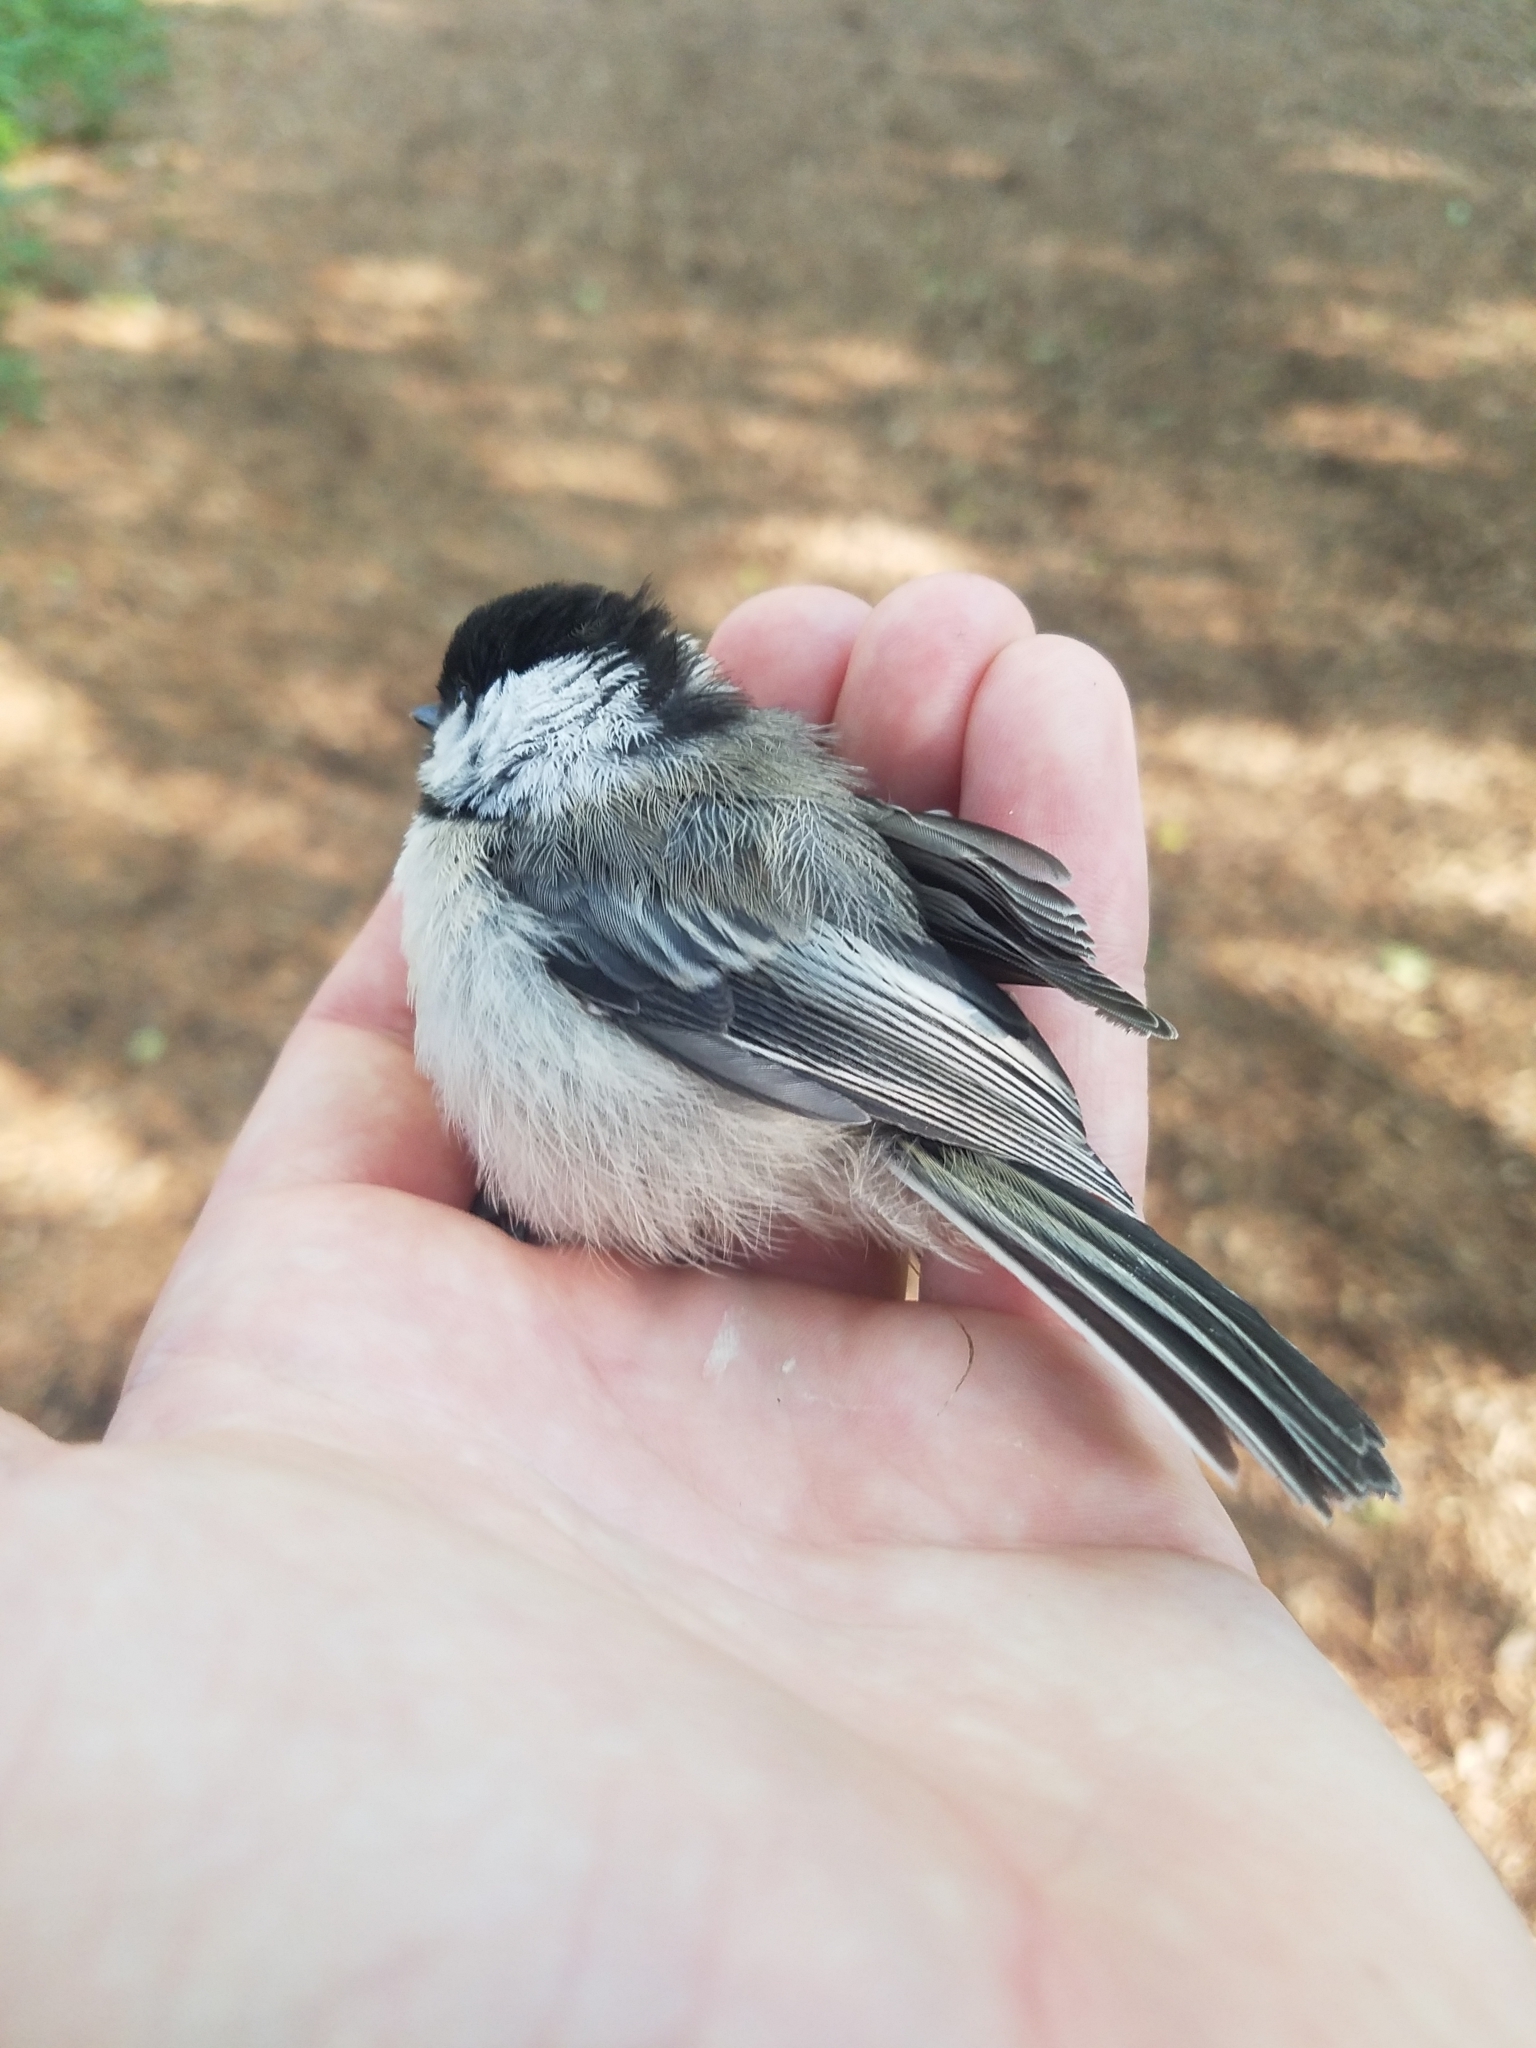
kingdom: Animalia
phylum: Chordata
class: Aves
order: Passeriformes
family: Paridae
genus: Poecile
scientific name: Poecile atricapillus
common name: Black-capped chickadee
